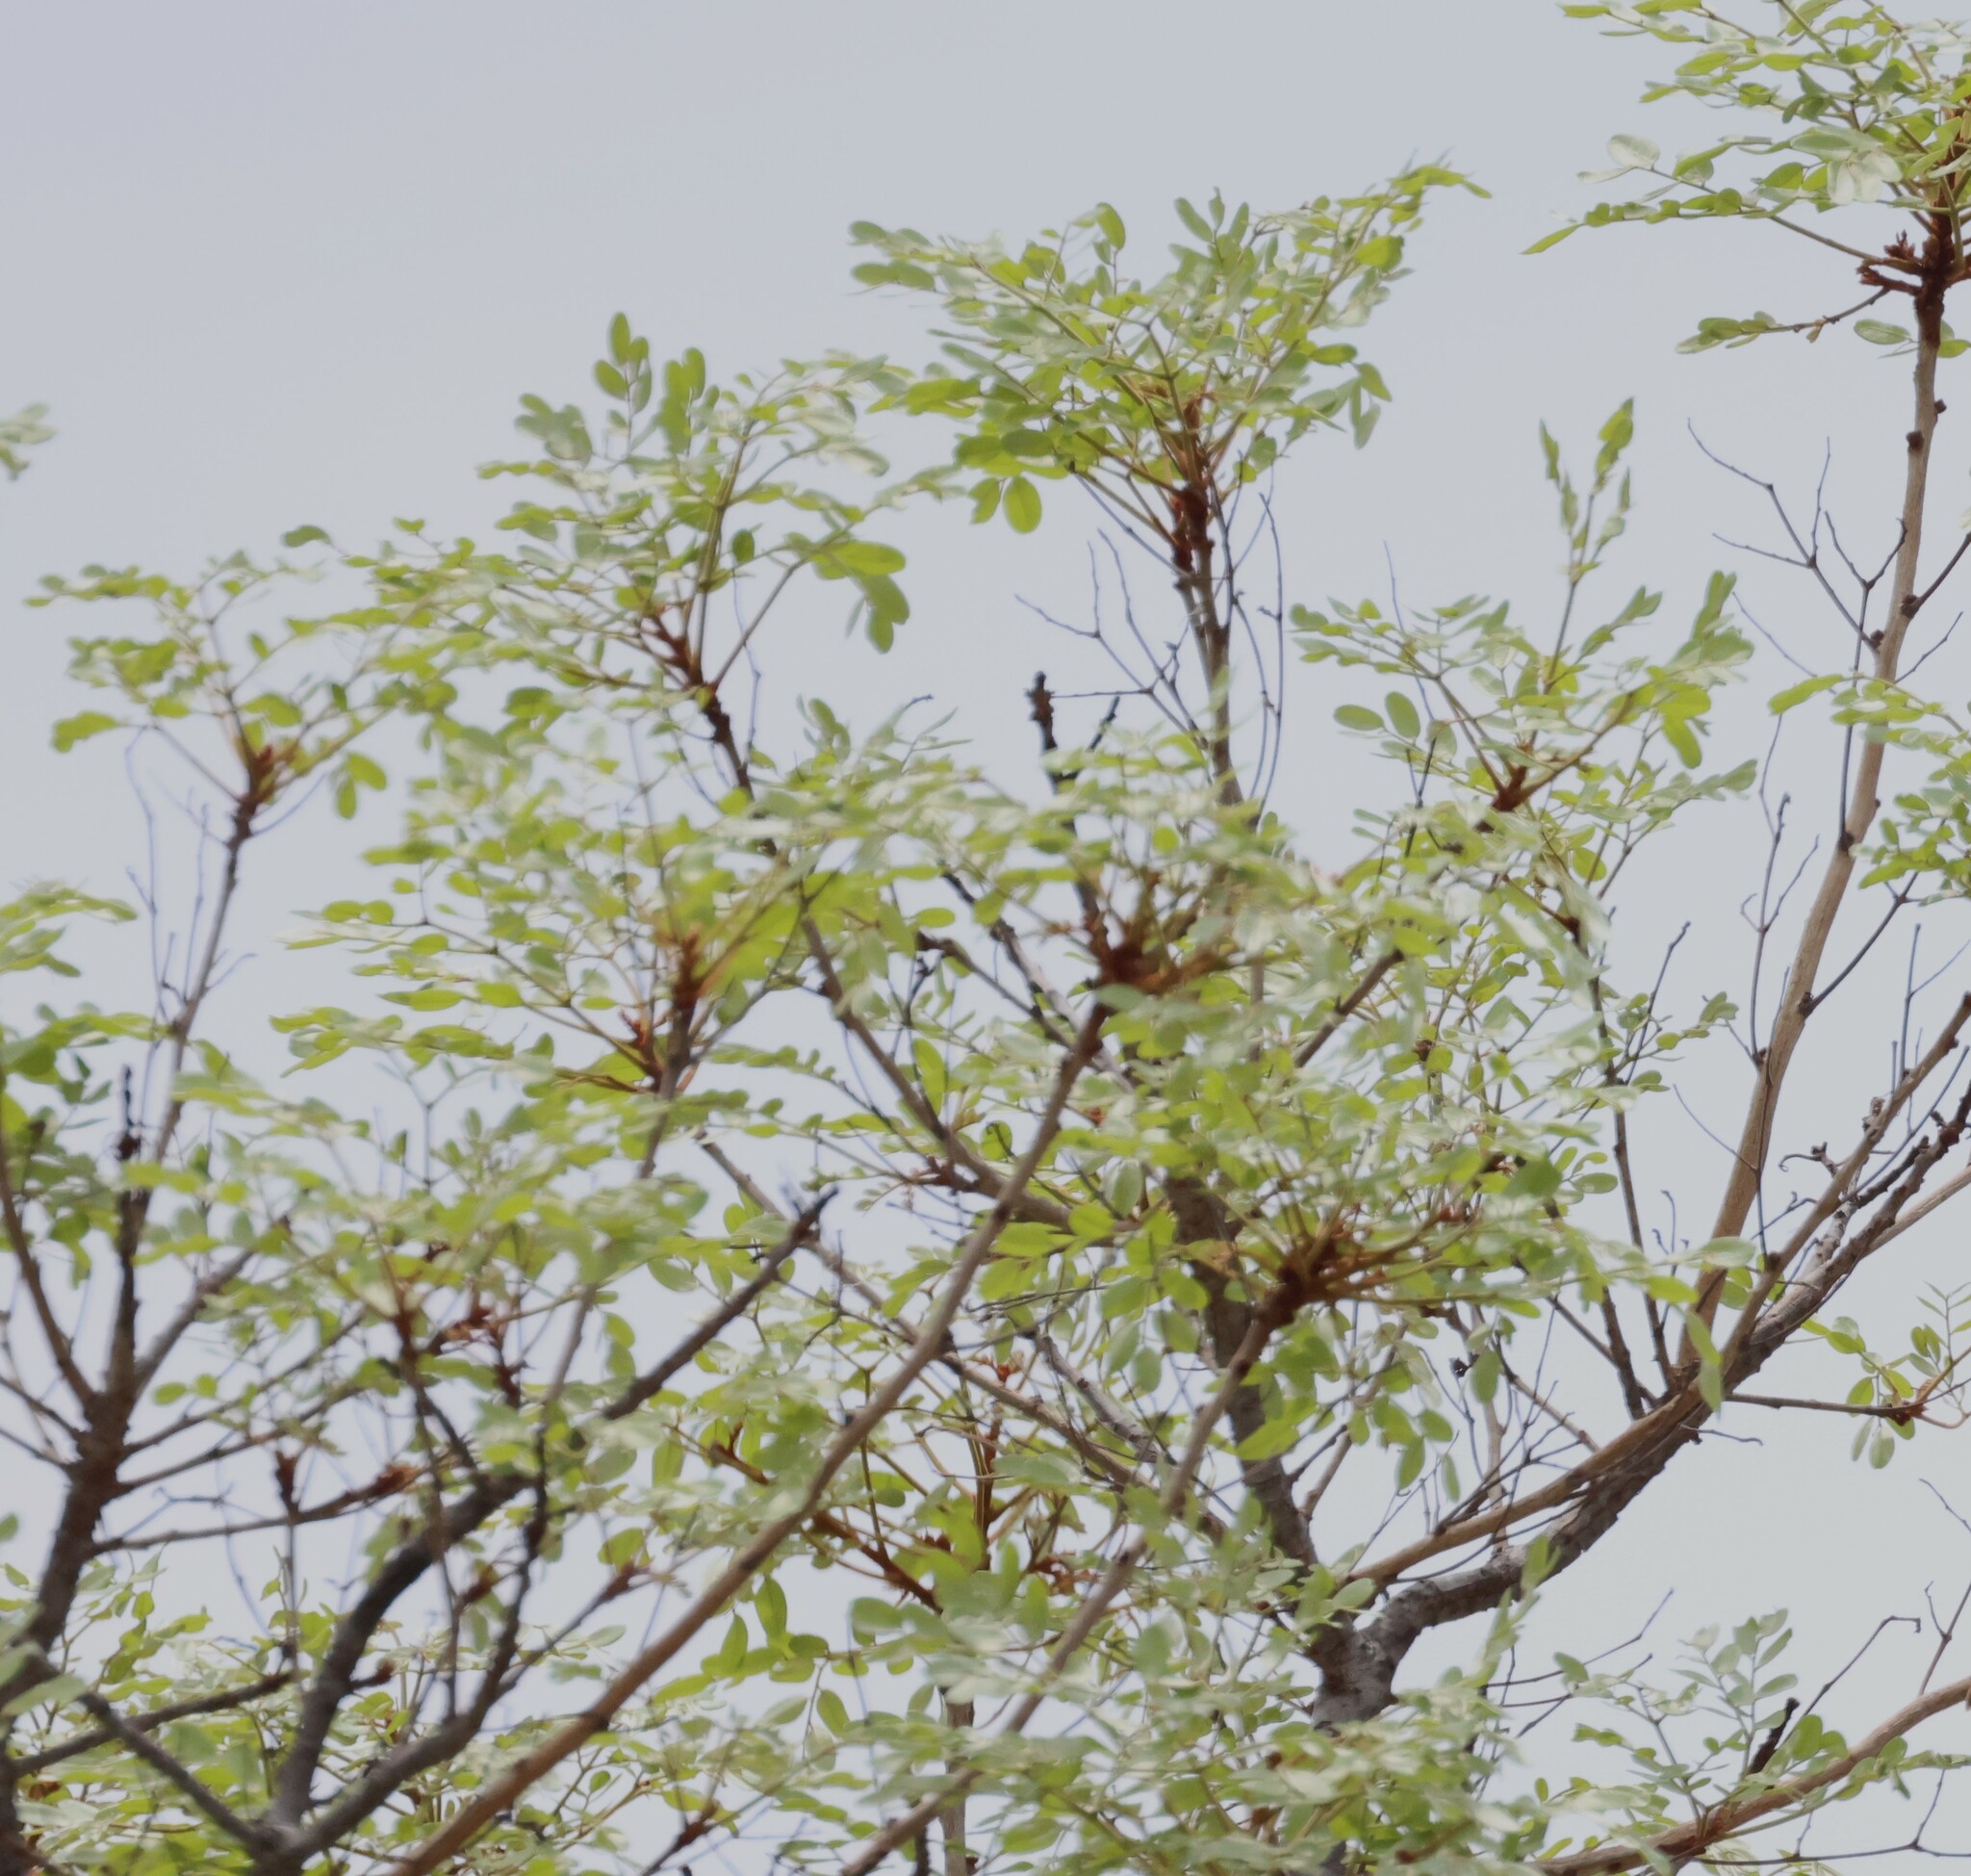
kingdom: Plantae
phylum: Tracheophyta
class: Magnoliopsida
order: Fabales
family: Fabaceae
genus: Burkea
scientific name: Burkea africana
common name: Mkalati tree
